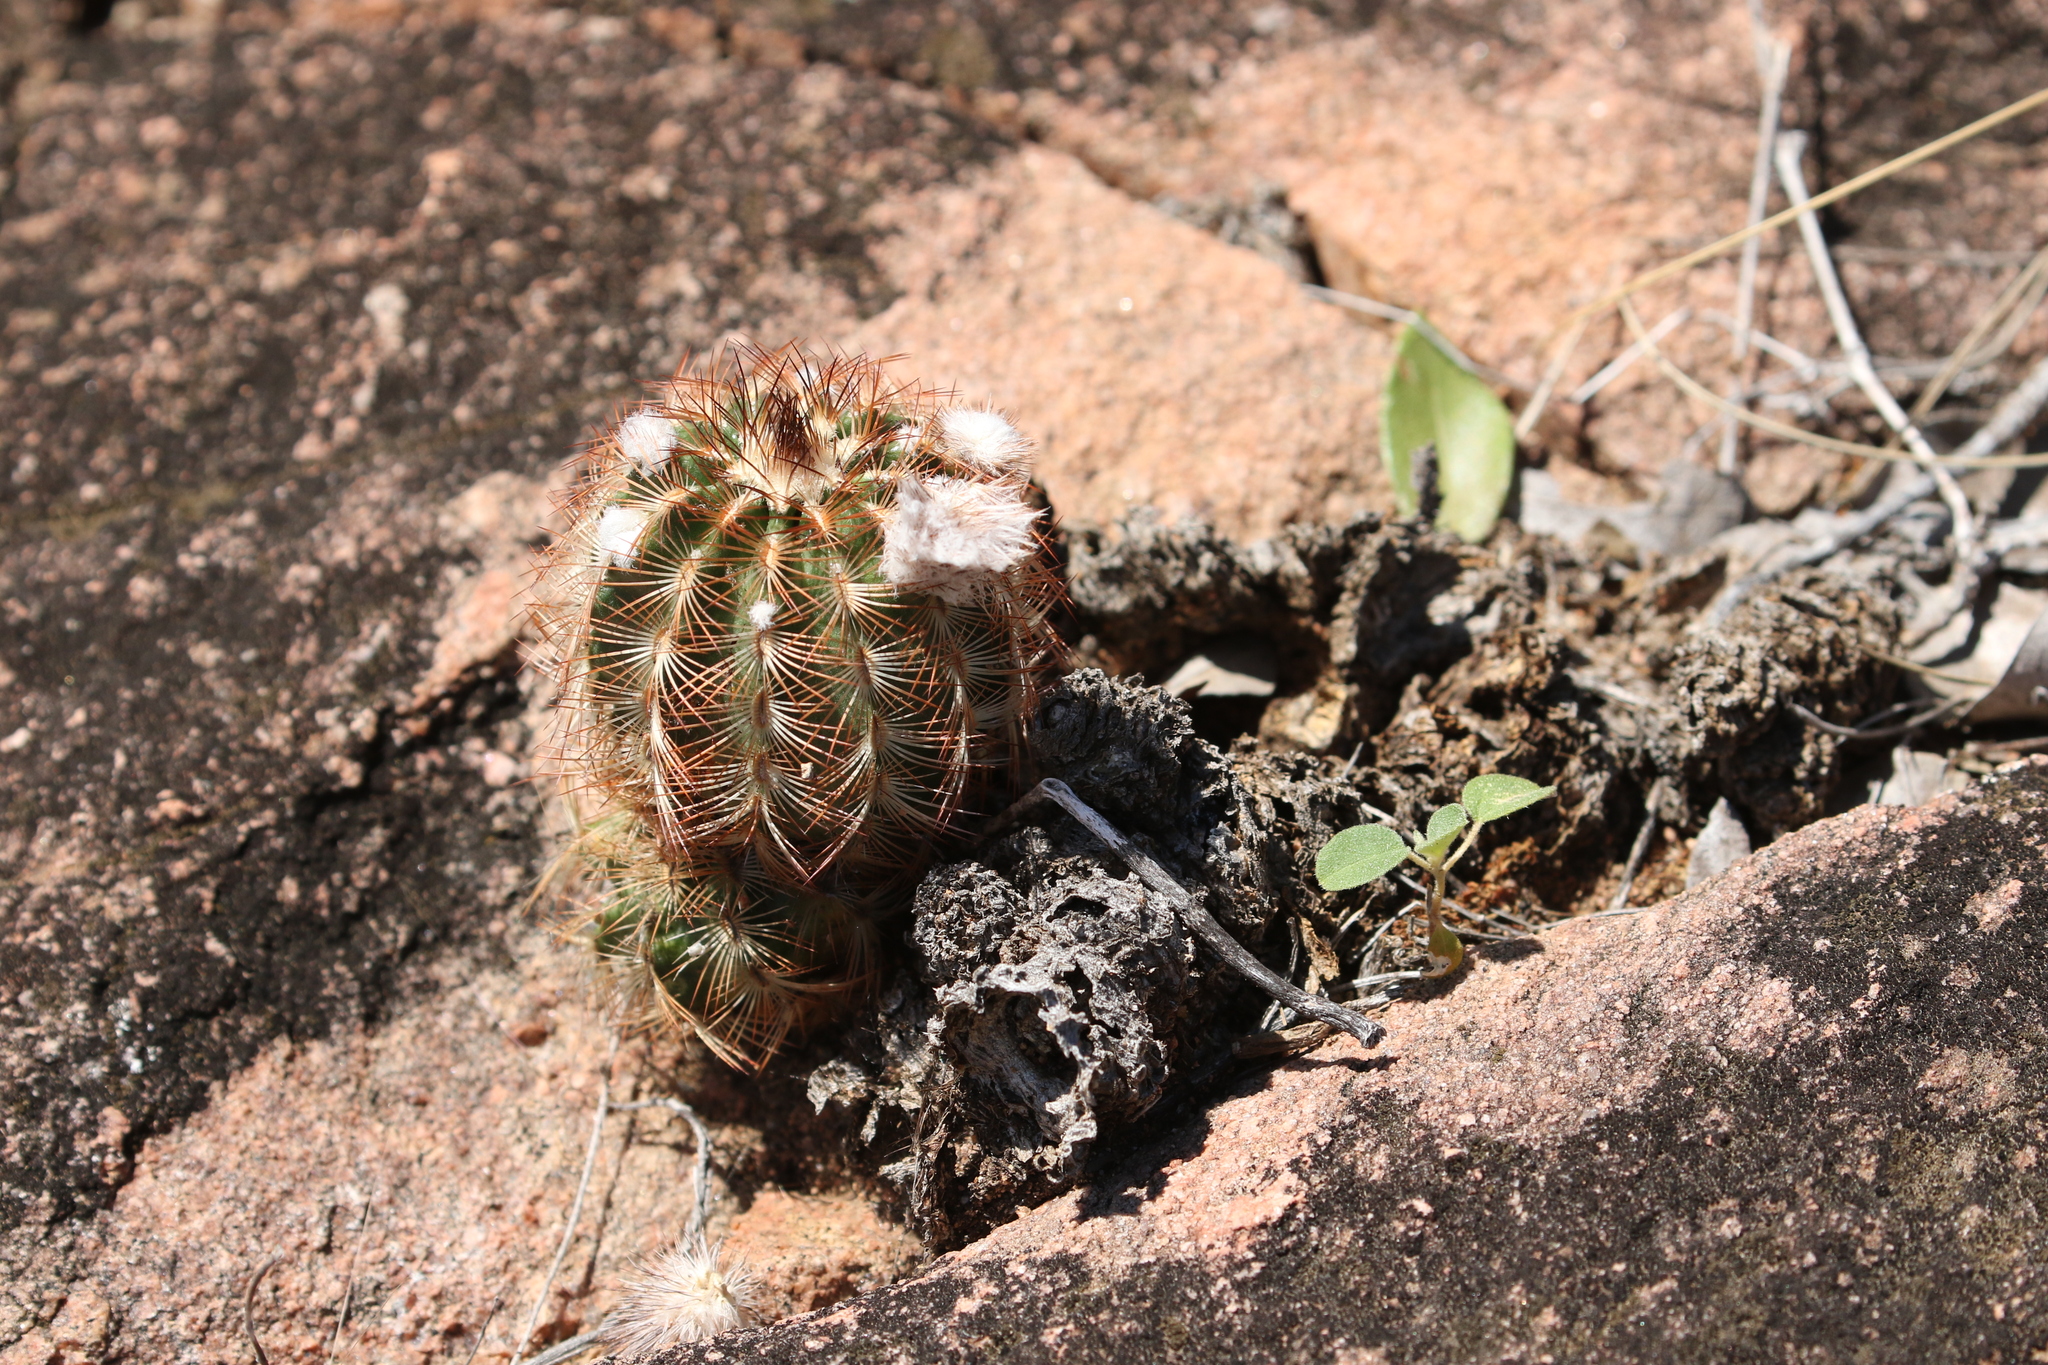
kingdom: Plantae
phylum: Tracheophyta
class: Magnoliopsida
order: Caryophyllales
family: Cactaceae
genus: Echinocereus
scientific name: Echinocereus reichenbachii
